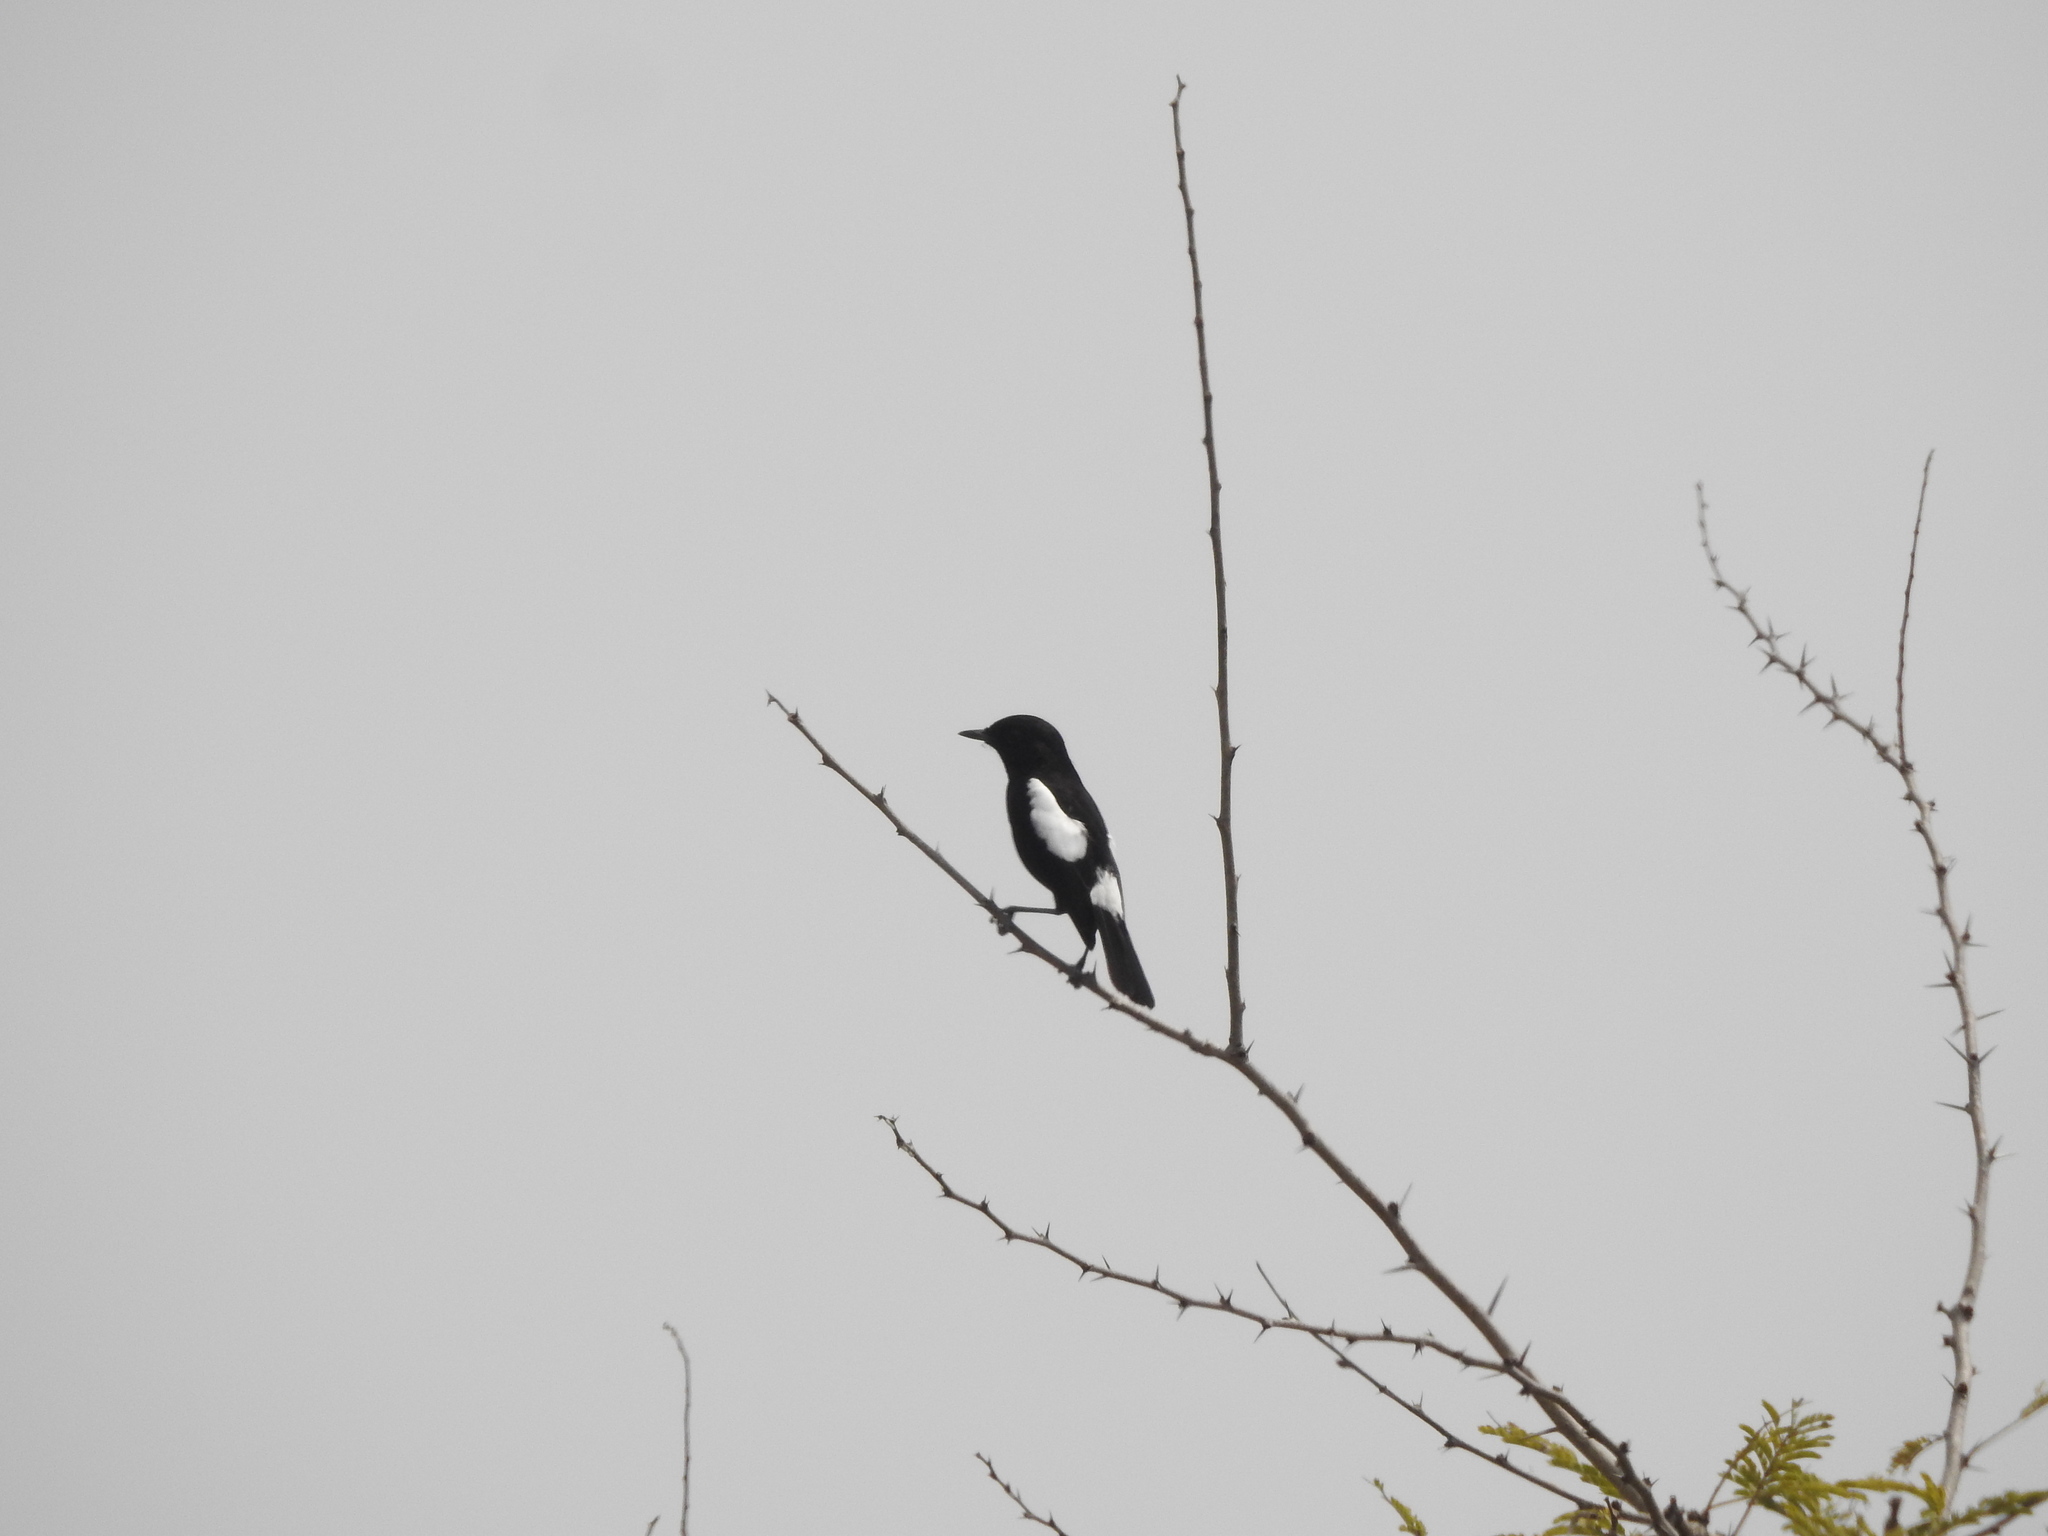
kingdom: Animalia
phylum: Chordata
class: Aves
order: Passeriformes
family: Muscicapidae
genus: Saxicola
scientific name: Saxicola caprata
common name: Pied bush chat
